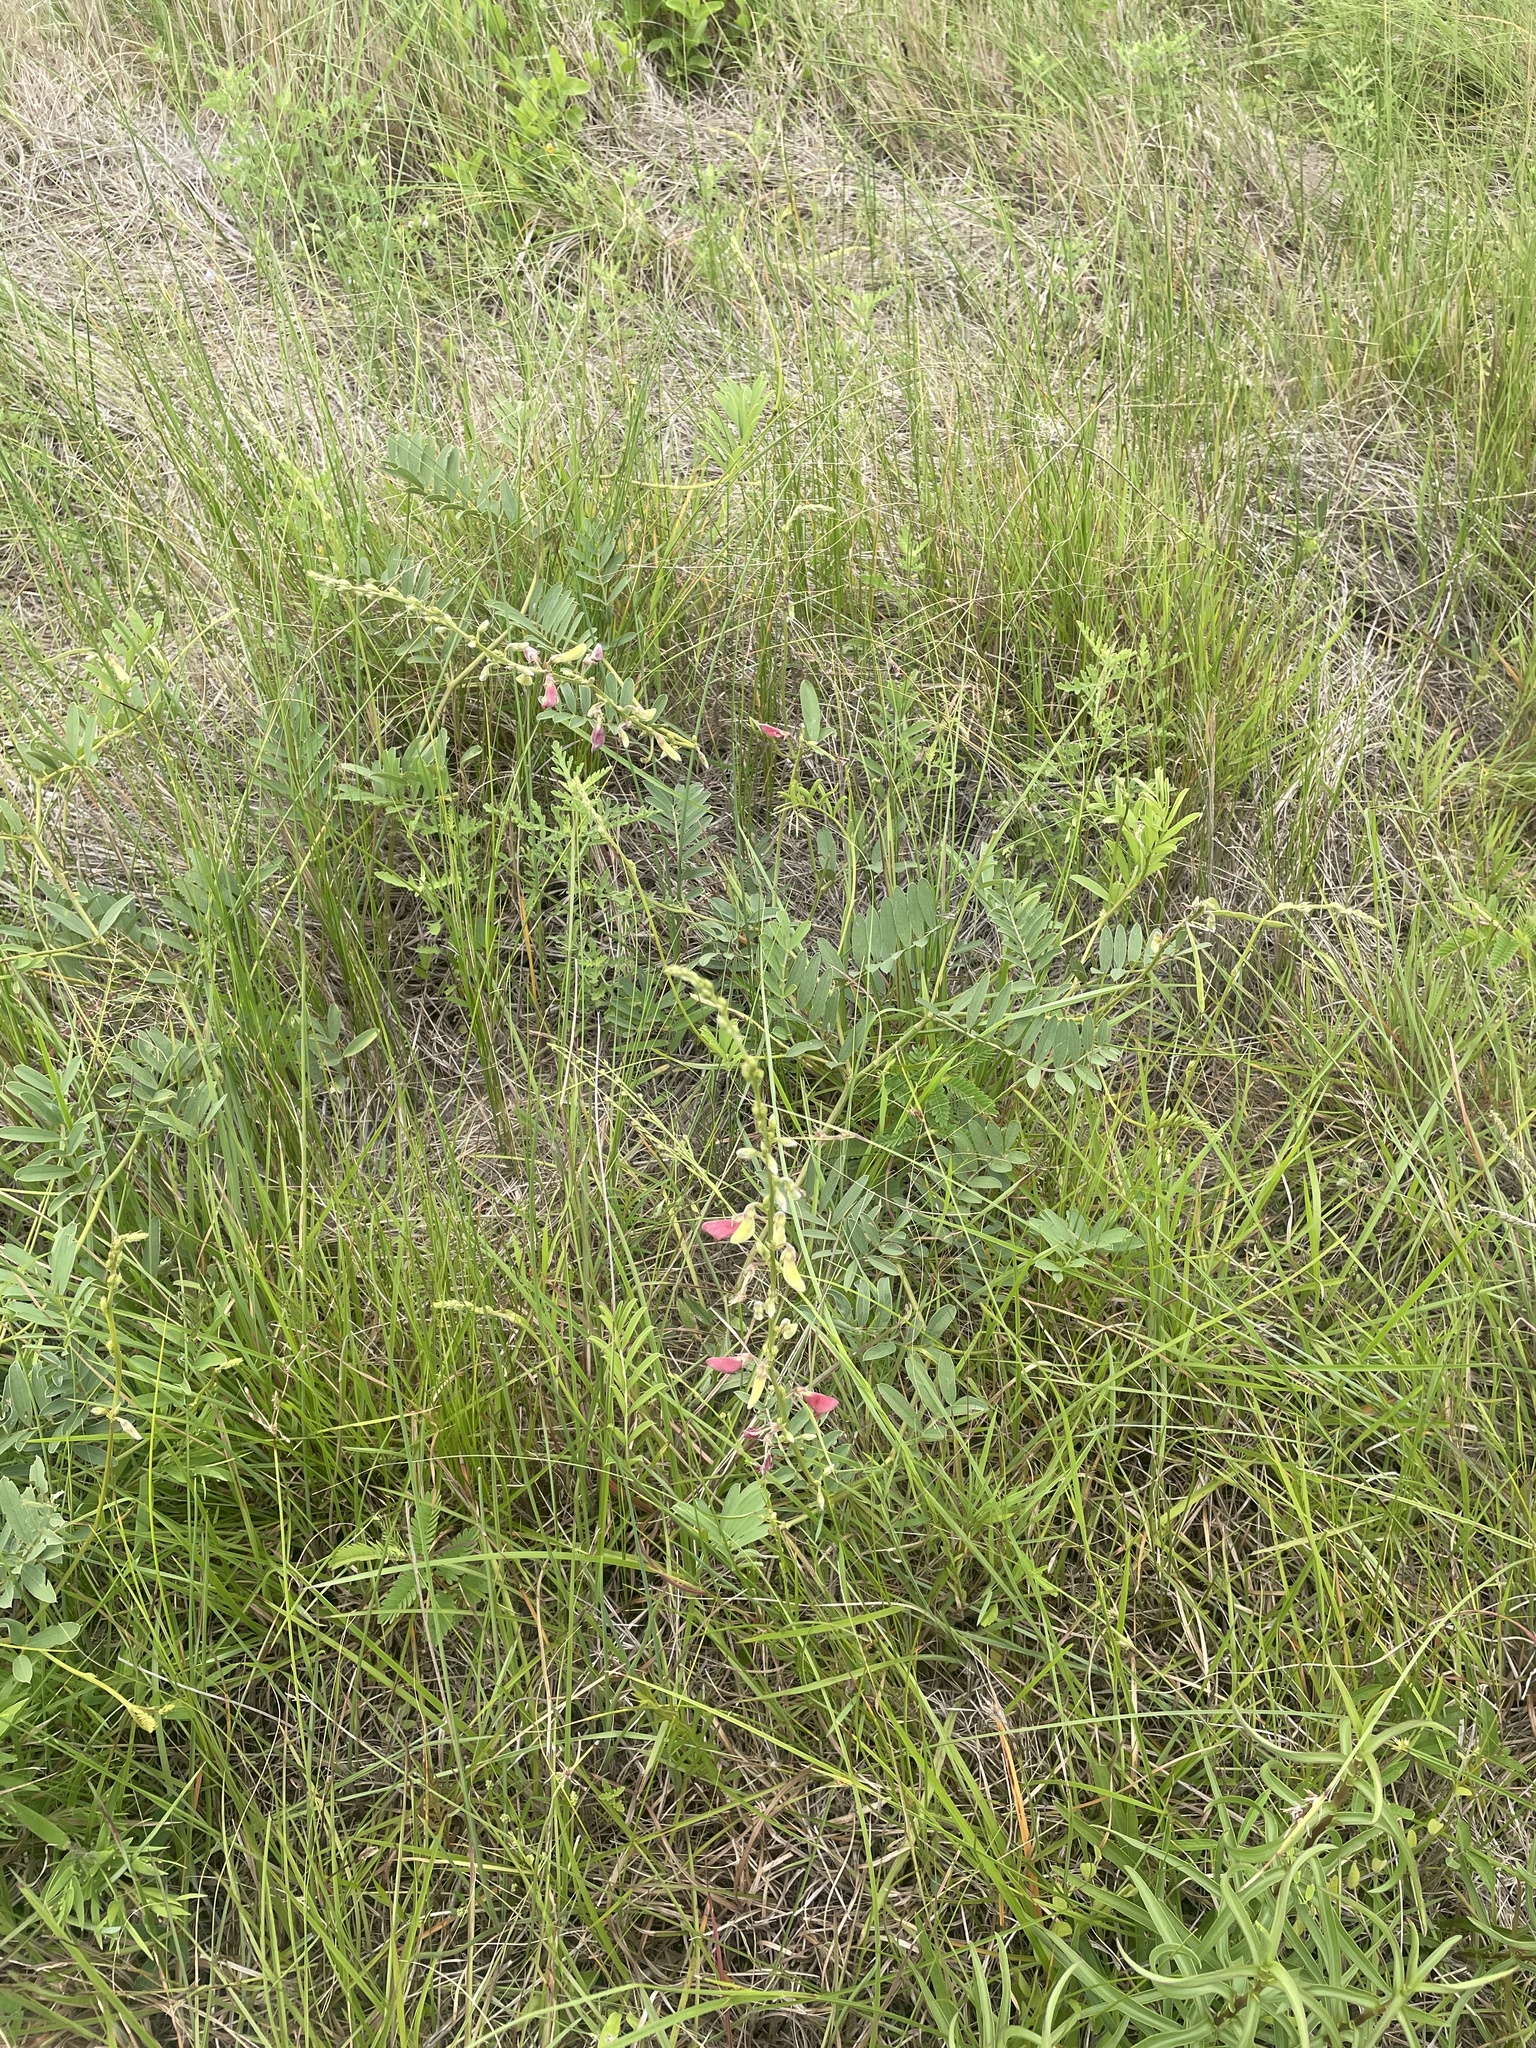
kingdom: Plantae
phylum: Tracheophyta
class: Magnoliopsida
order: Fabales
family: Fabaceae
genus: Tephrosia
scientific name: Tephrosia onobrychoides
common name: Multi-bloom hoary-pea
